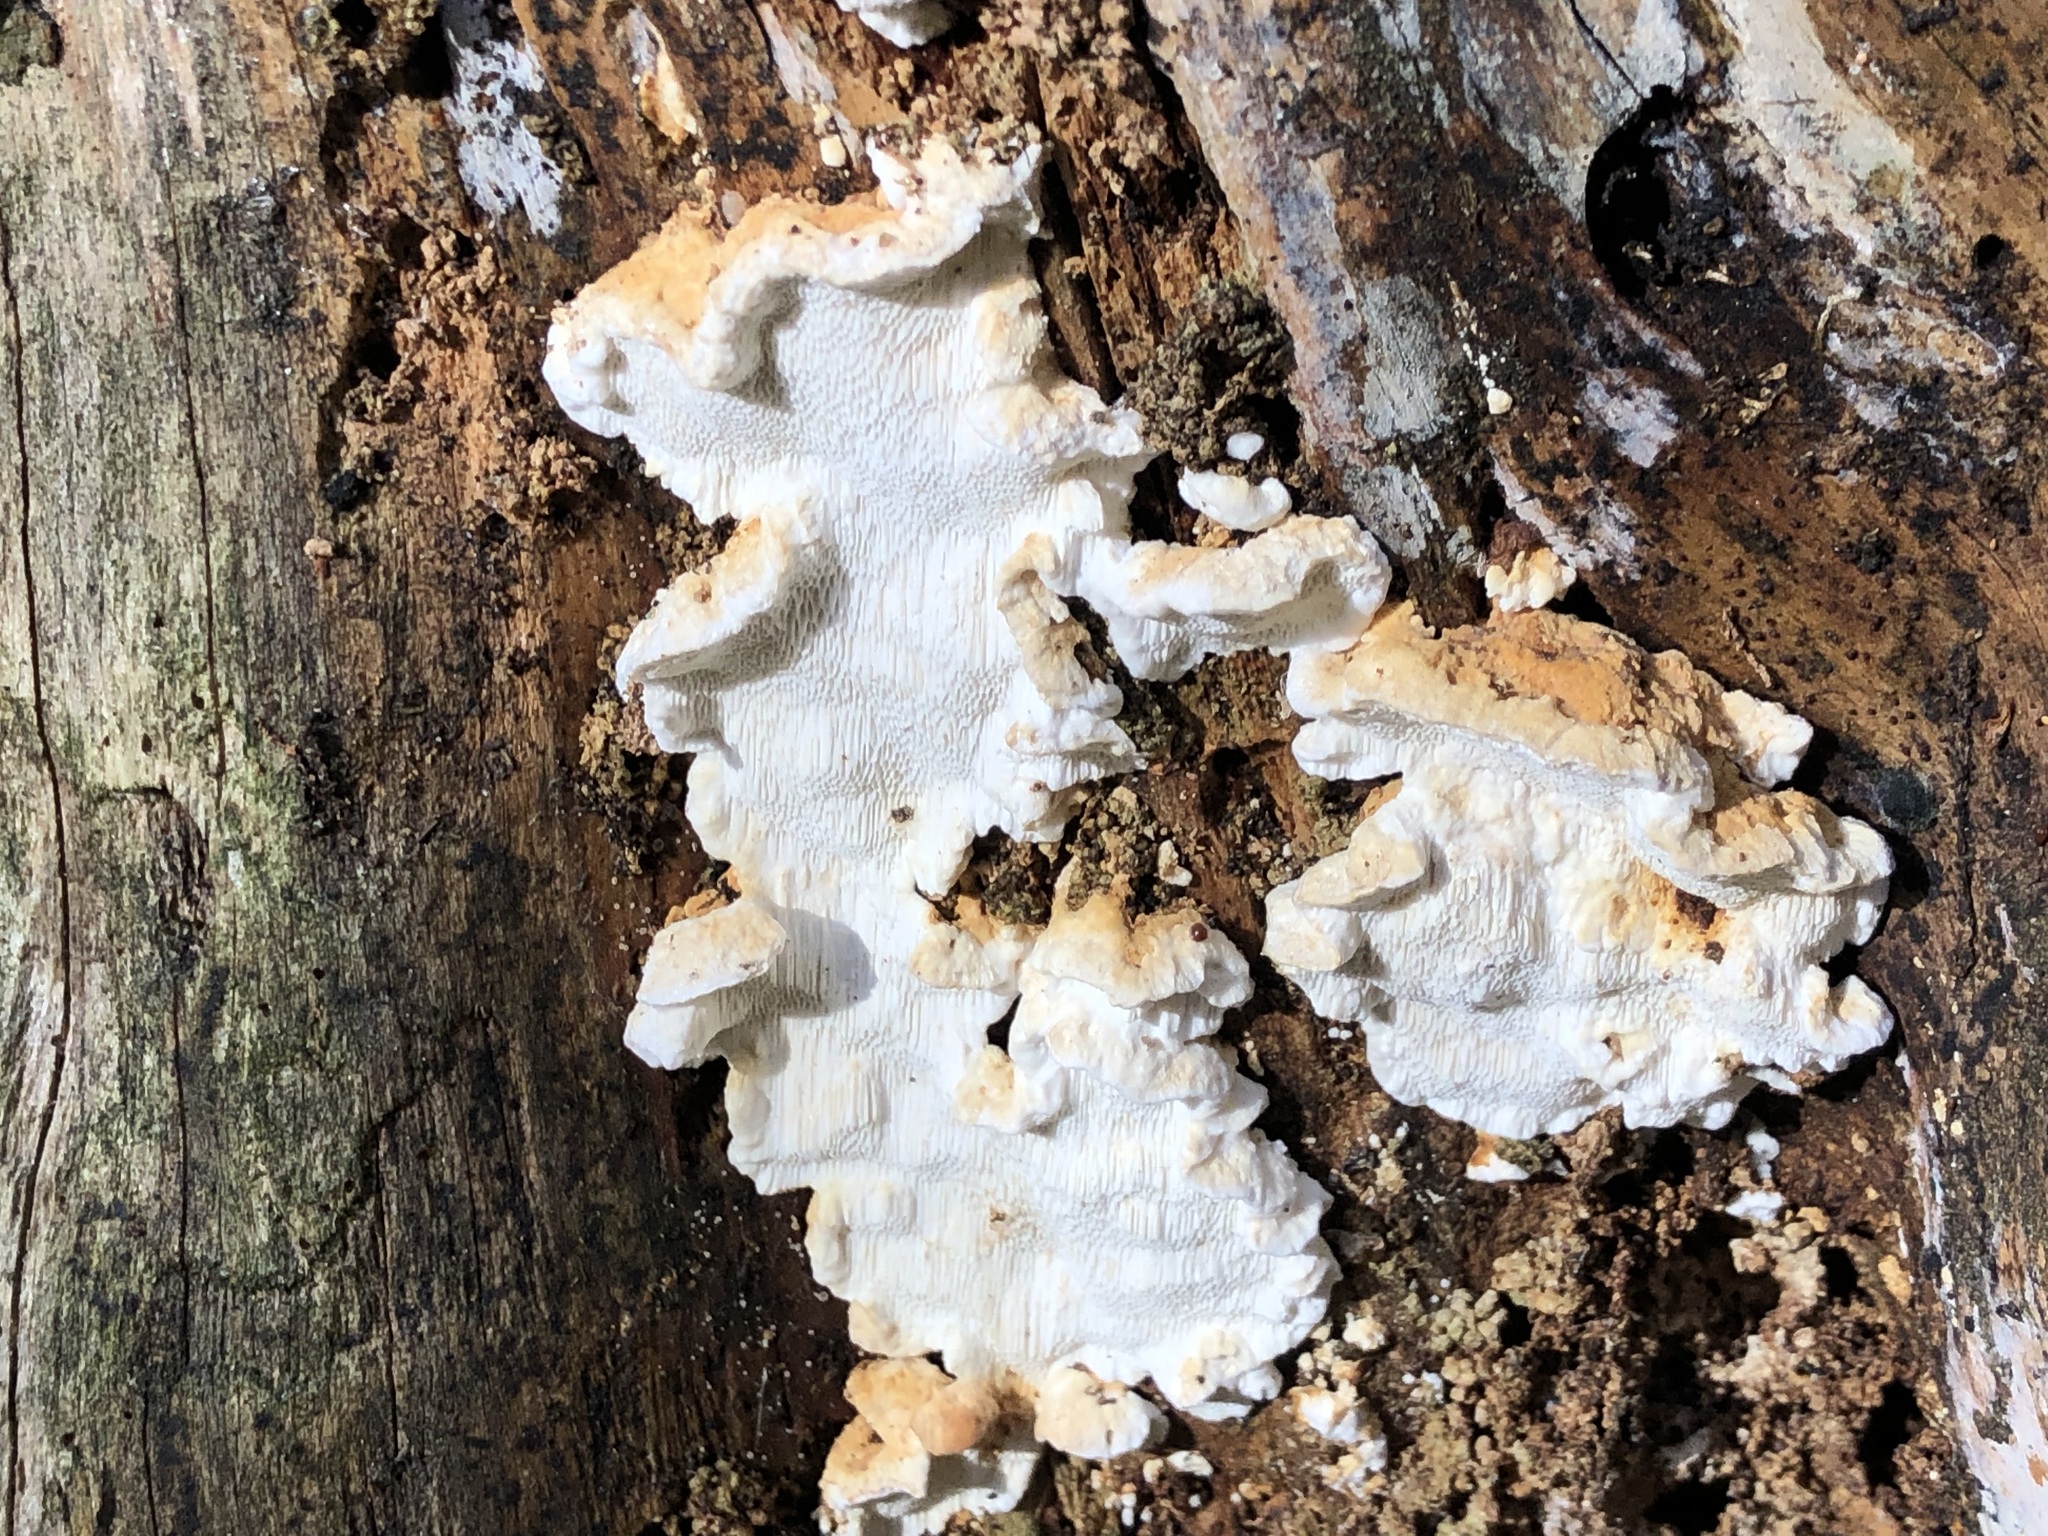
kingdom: Fungi
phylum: Basidiomycota
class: Agaricomycetes
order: Polyporales
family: Fomitopsidaceae
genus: Neoantrodia
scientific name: Neoantrodia serialis
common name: Serried porecrust
